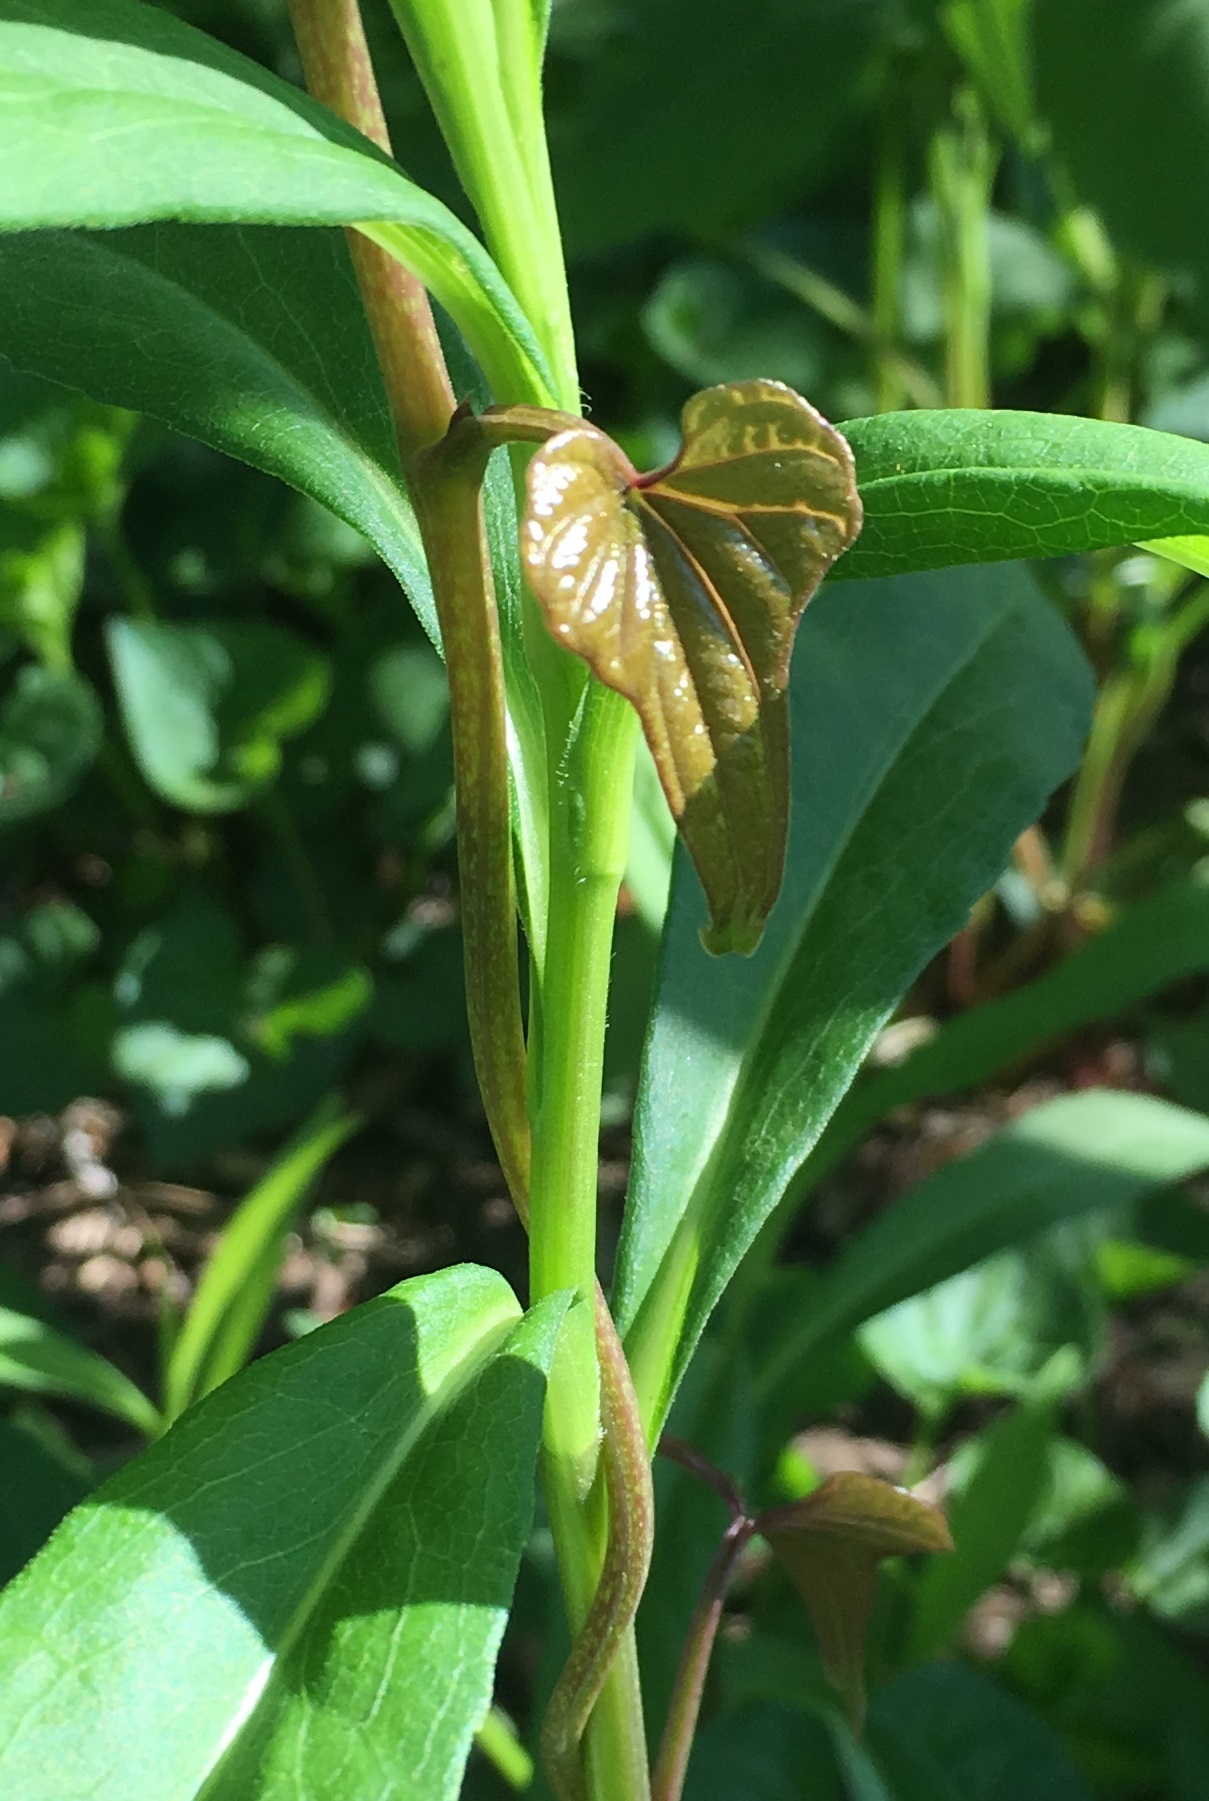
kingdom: Plantae
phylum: Tracheophyta
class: Liliopsida
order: Dioscoreales
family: Dioscoreaceae
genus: Dioscorea
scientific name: Dioscorea polystachya
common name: Chinese yam
